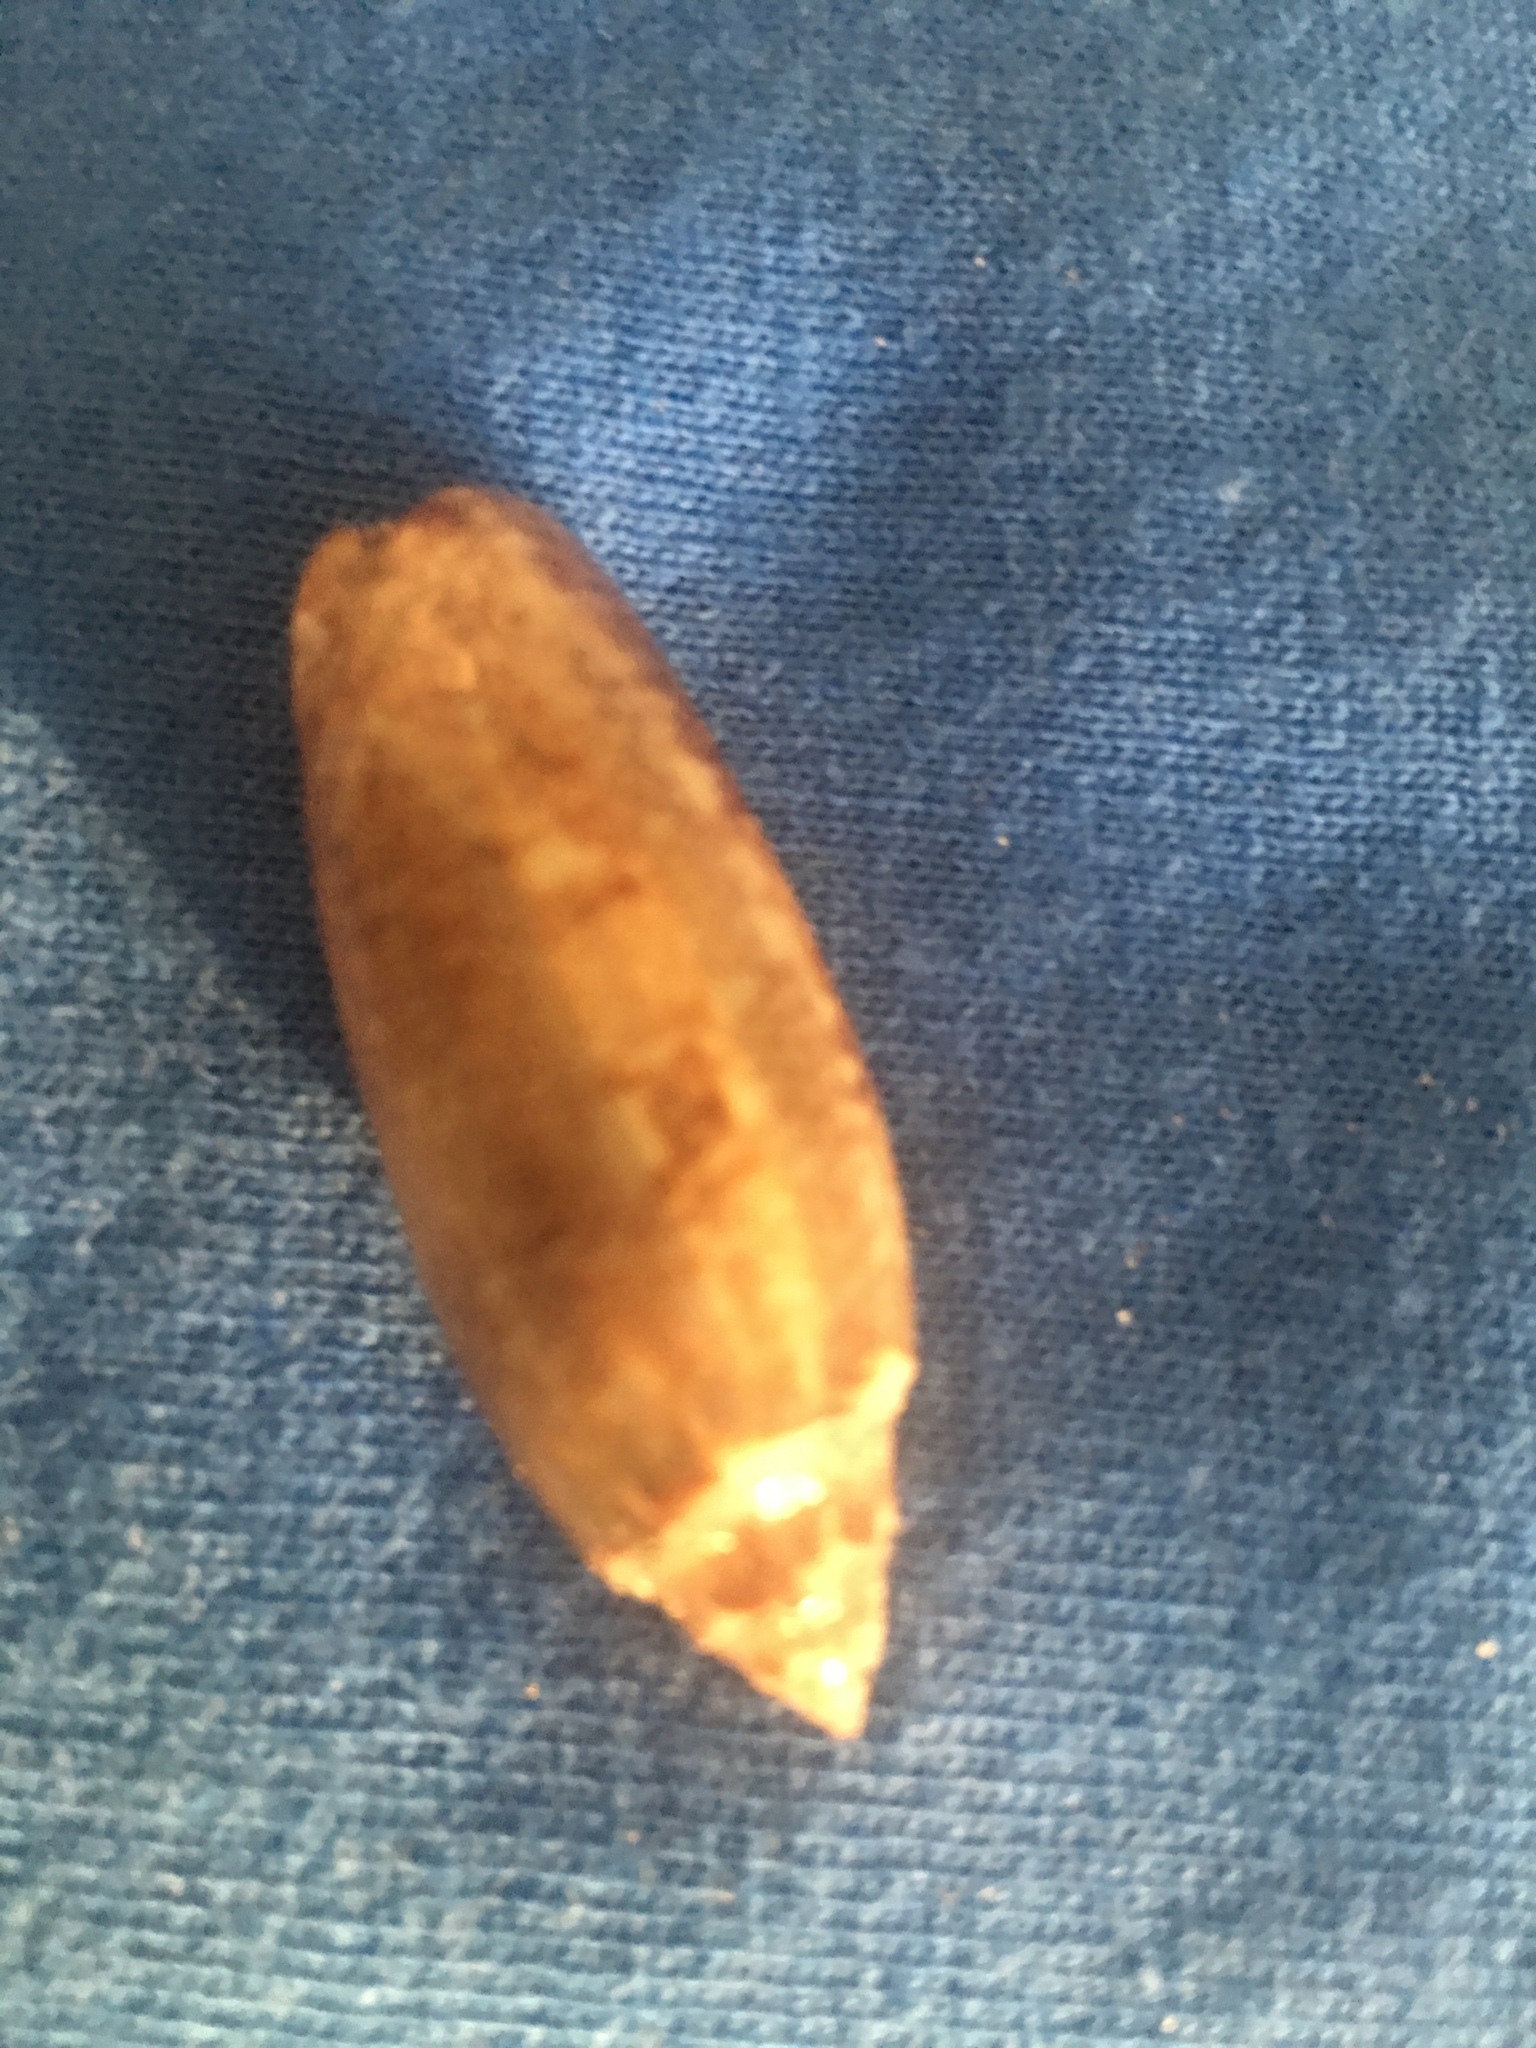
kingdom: Animalia
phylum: Mollusca
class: Gastropoda
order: Neogastropoda
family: Olividae
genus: Oliva
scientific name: Oliva sayana
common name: Lettered olive
